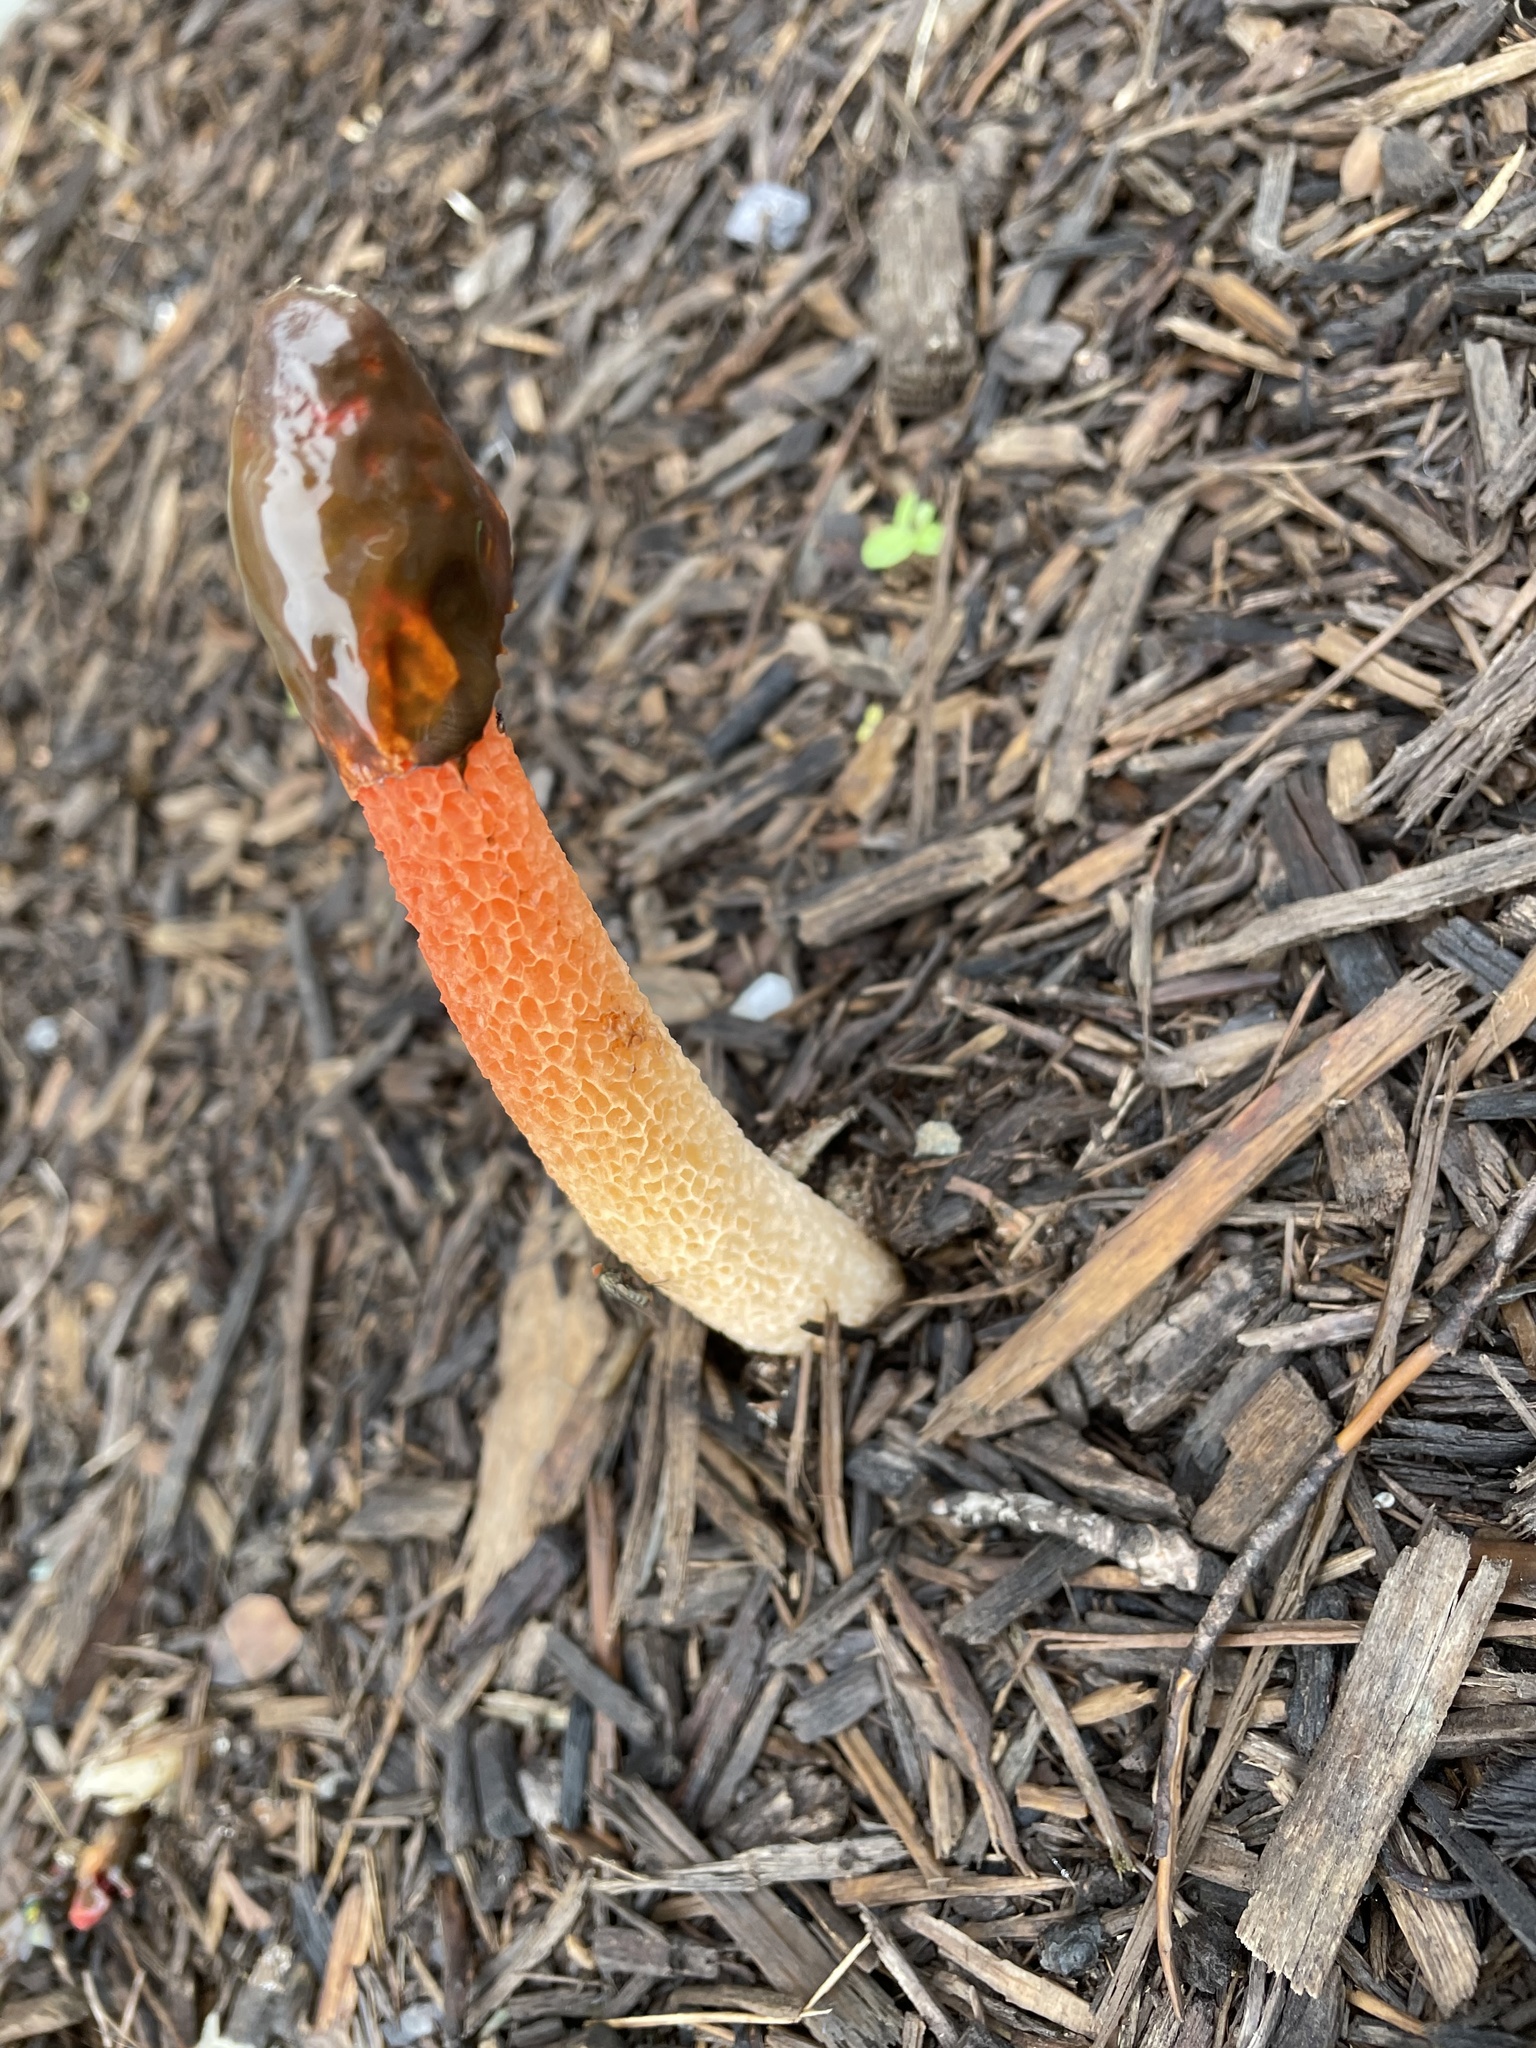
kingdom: Fungi
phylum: Basidiomycota
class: Agaricomycetes
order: Phallales
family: Phallaceae
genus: Phallus
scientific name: Phallus rugulosus
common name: Wrinkly stinkhorn
